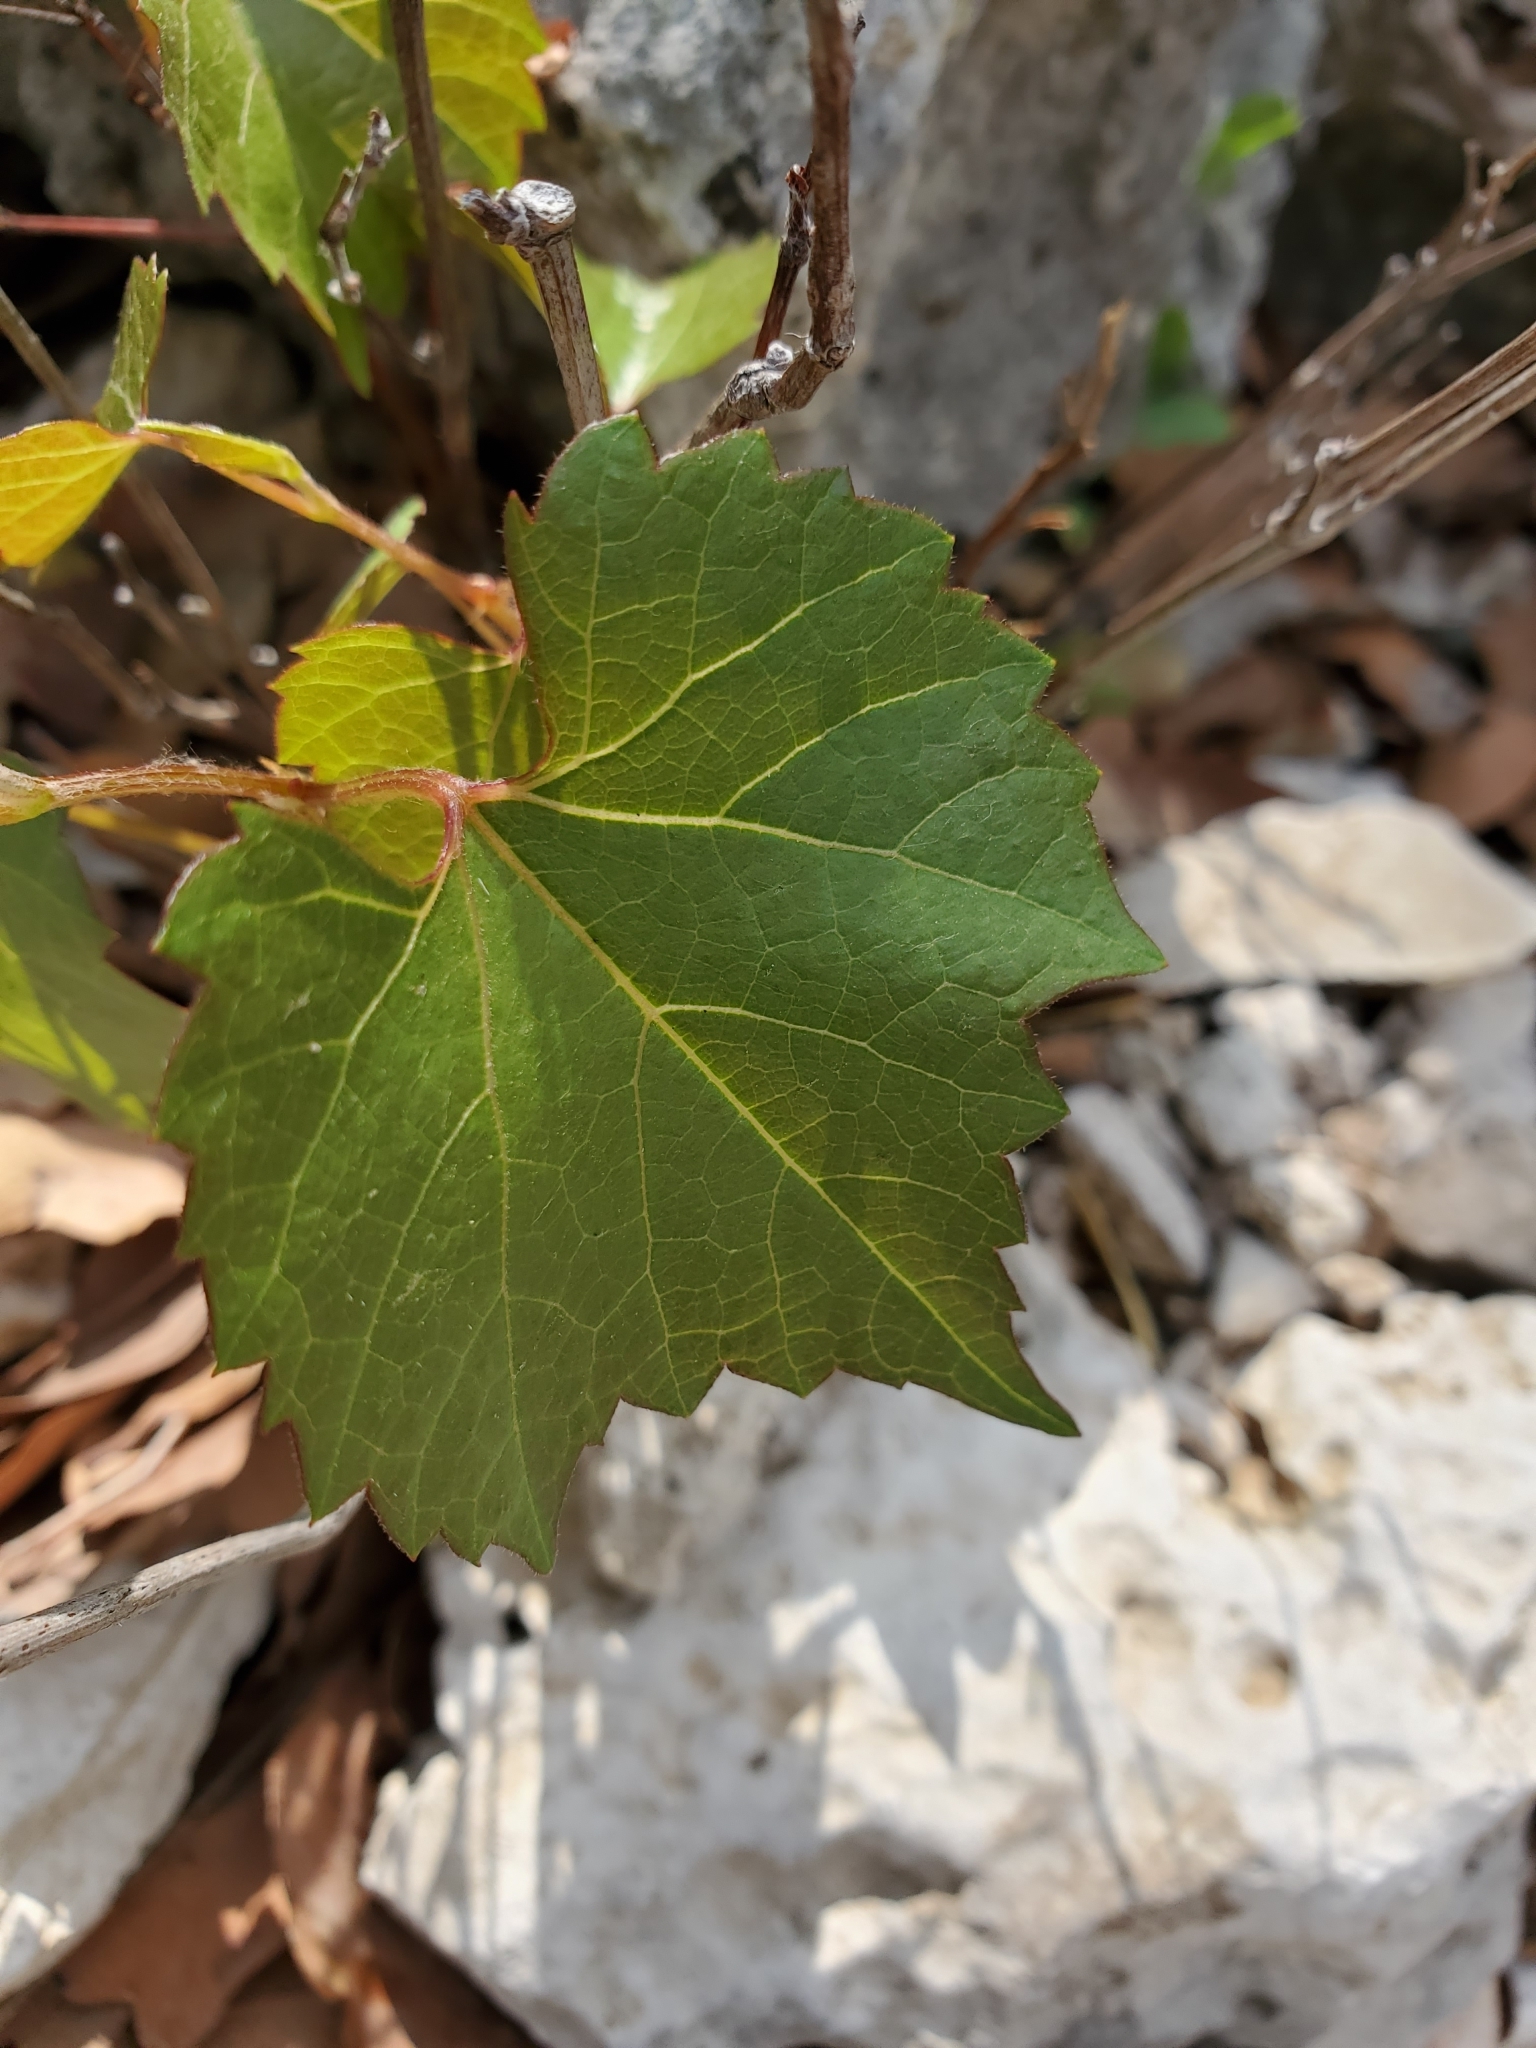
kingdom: Plantae
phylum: Tracheophyta
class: Magnoliopsida
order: Vitales
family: Vitaceae
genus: Vitis
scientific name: Vitis monticola
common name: Mountain grape
